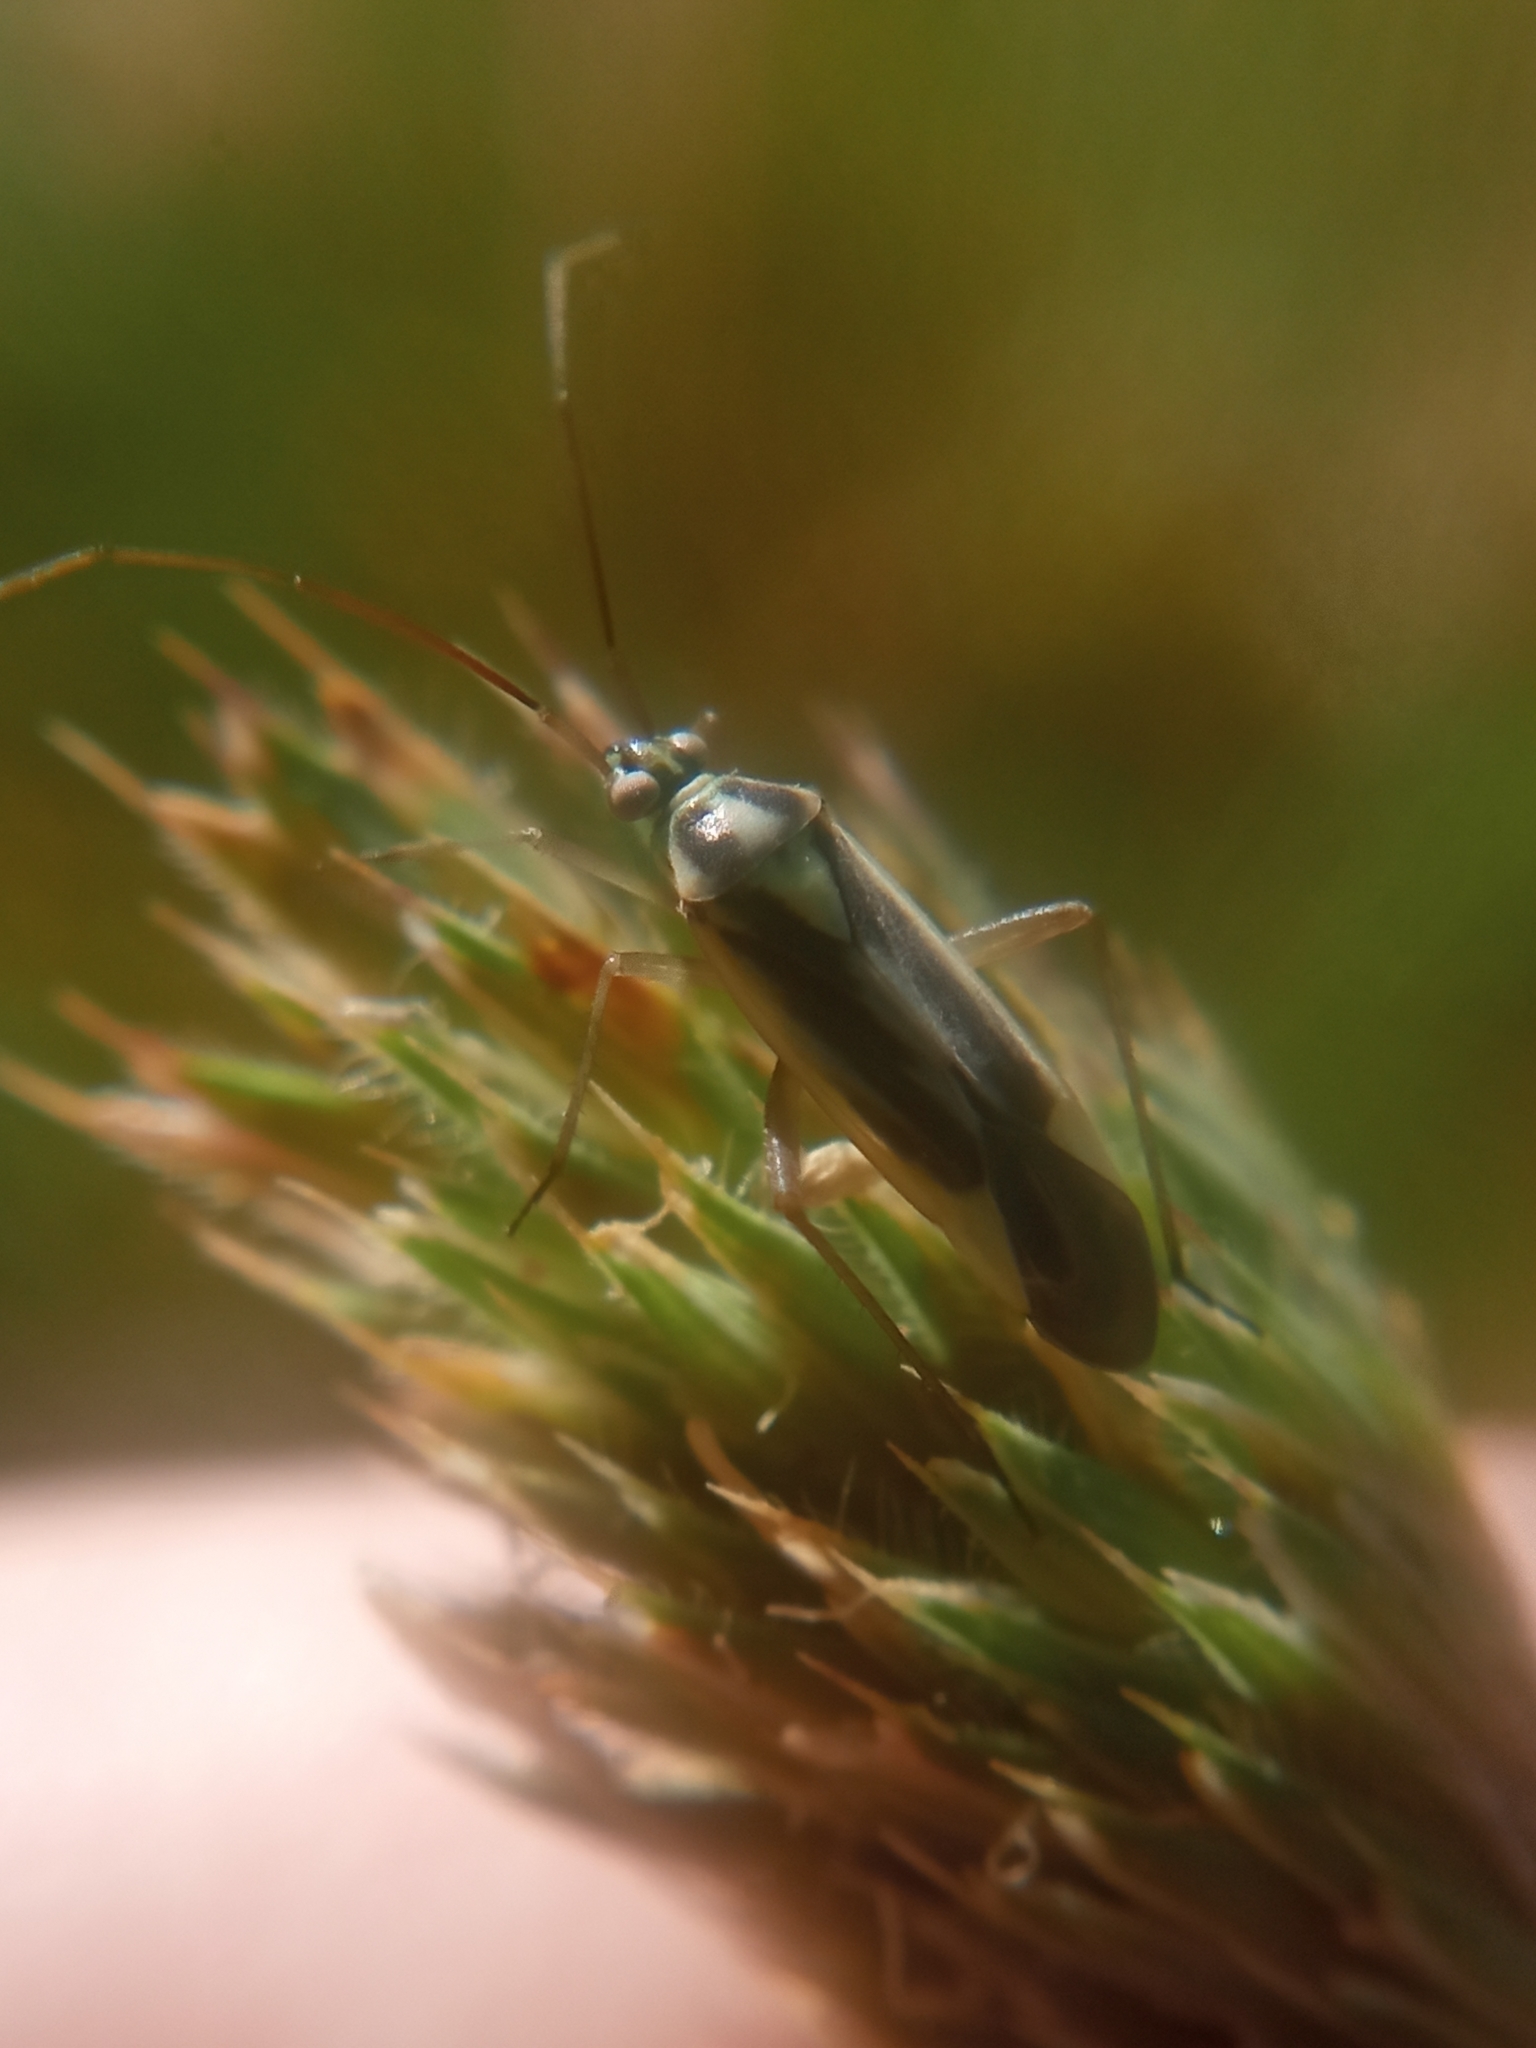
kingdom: Animalia
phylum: Arthropoda
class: Insecta
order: Hemiptera
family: Miridae
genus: Stenotus
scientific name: Stenotus binotatus
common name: Plant bug
